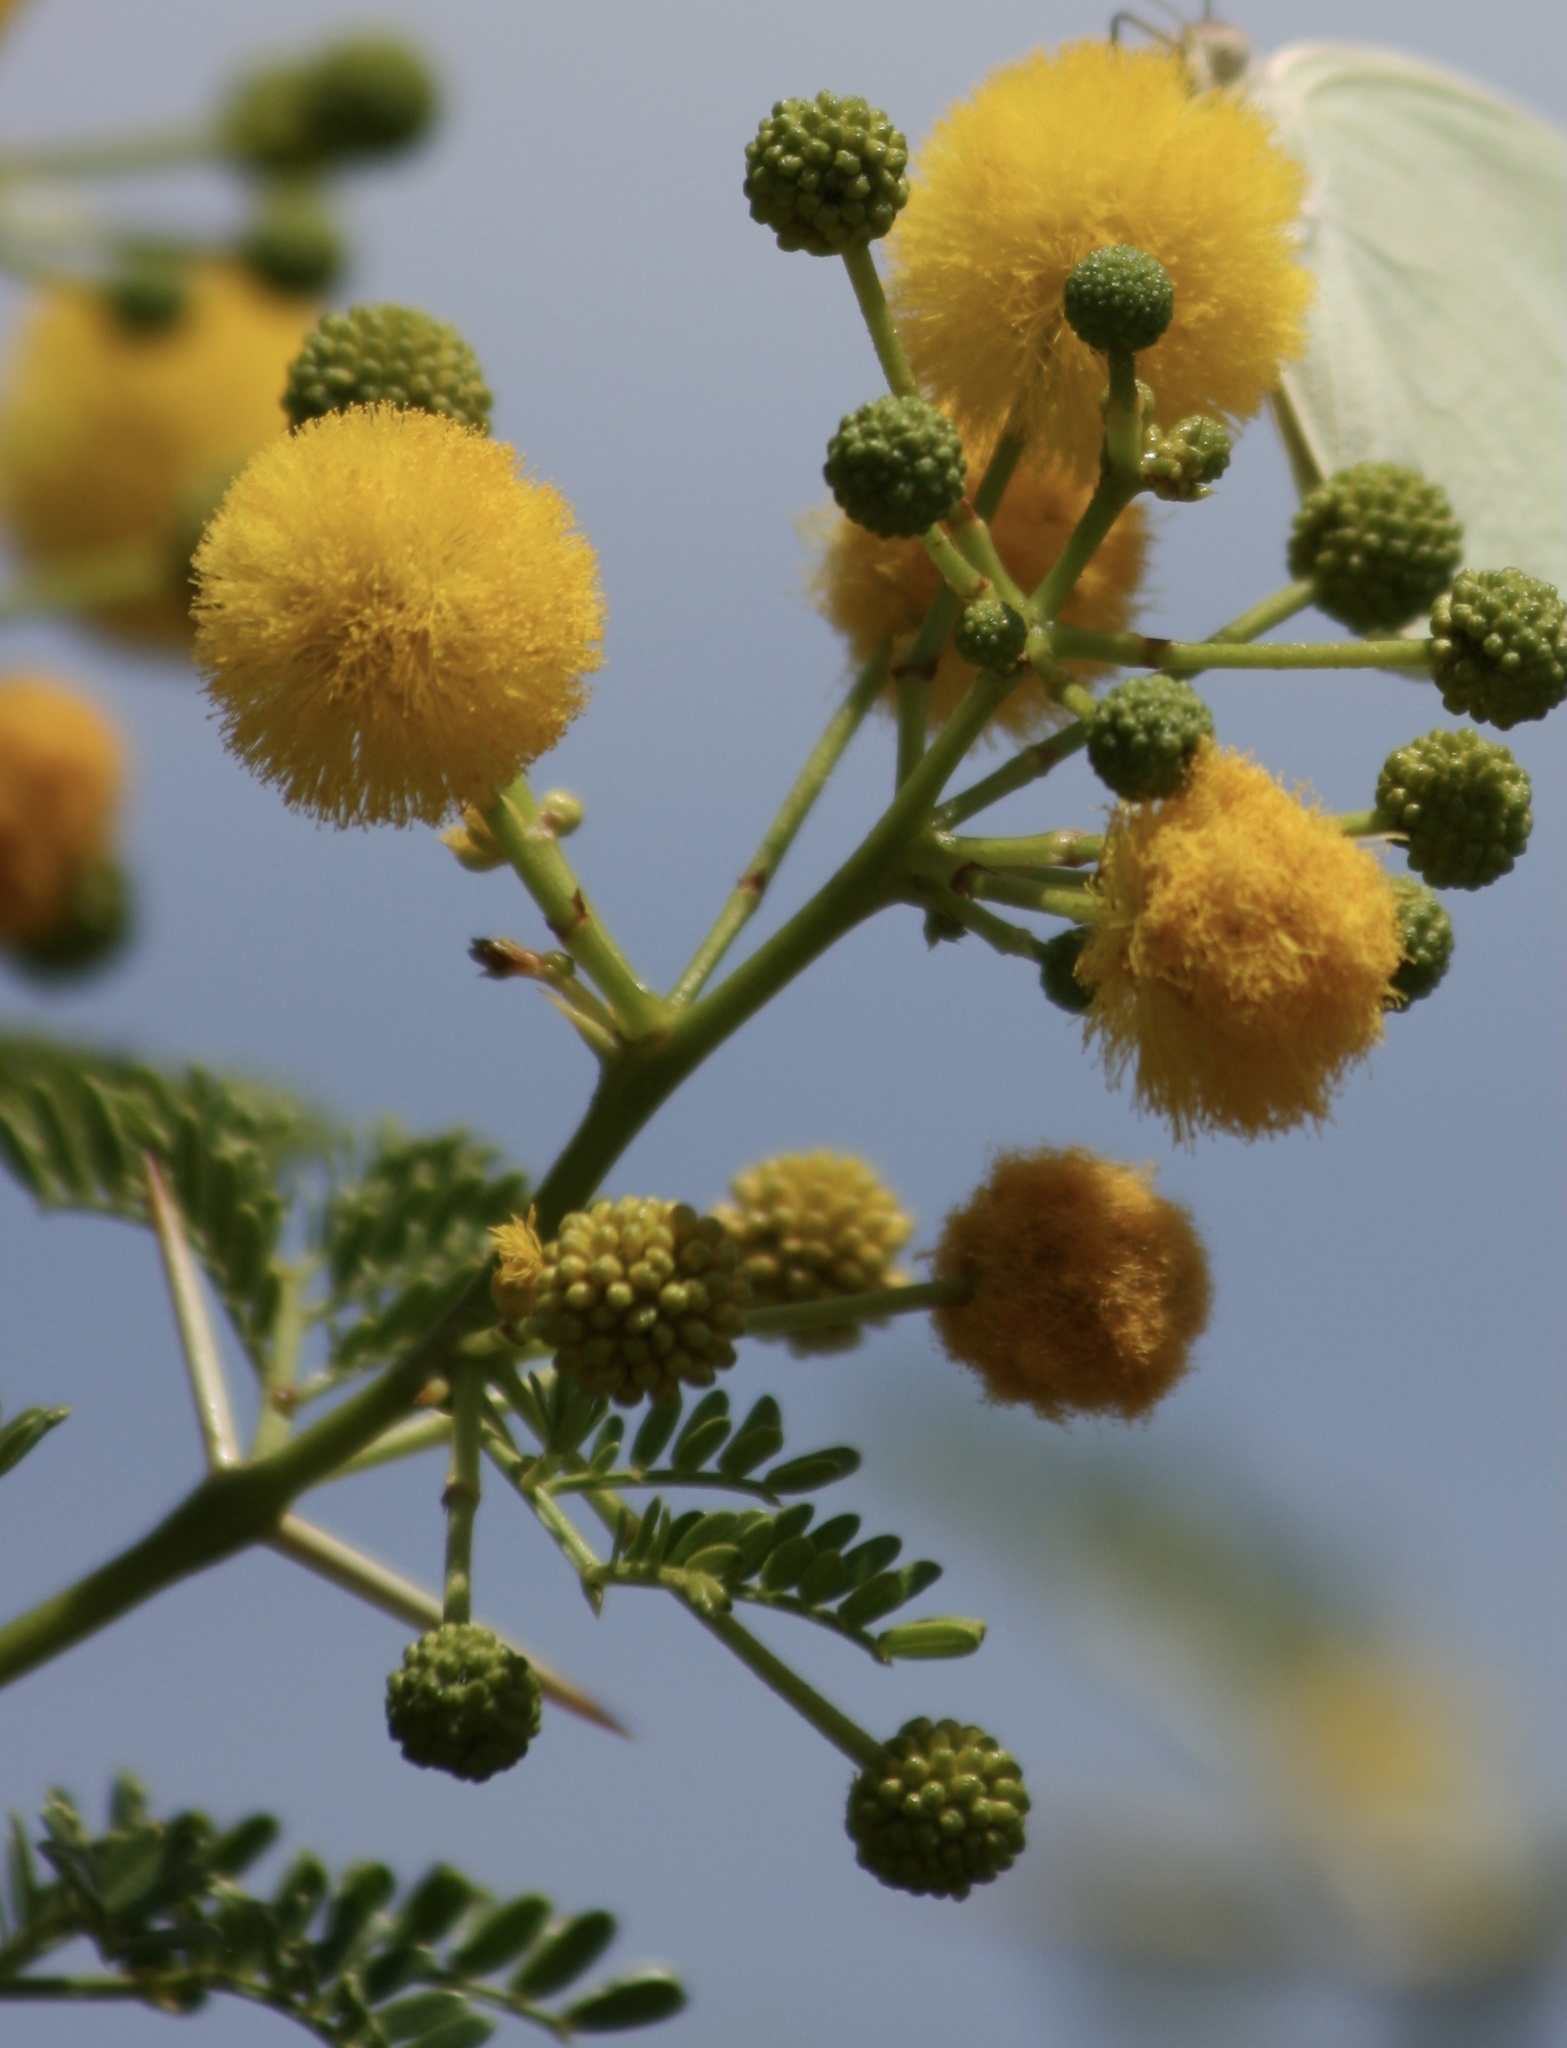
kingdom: Plantae
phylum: Tracheophyta
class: Magnoliopsida
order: Fabales
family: Fabaceae
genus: Vachellia
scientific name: Vachellia karroo
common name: Sweet thorn
